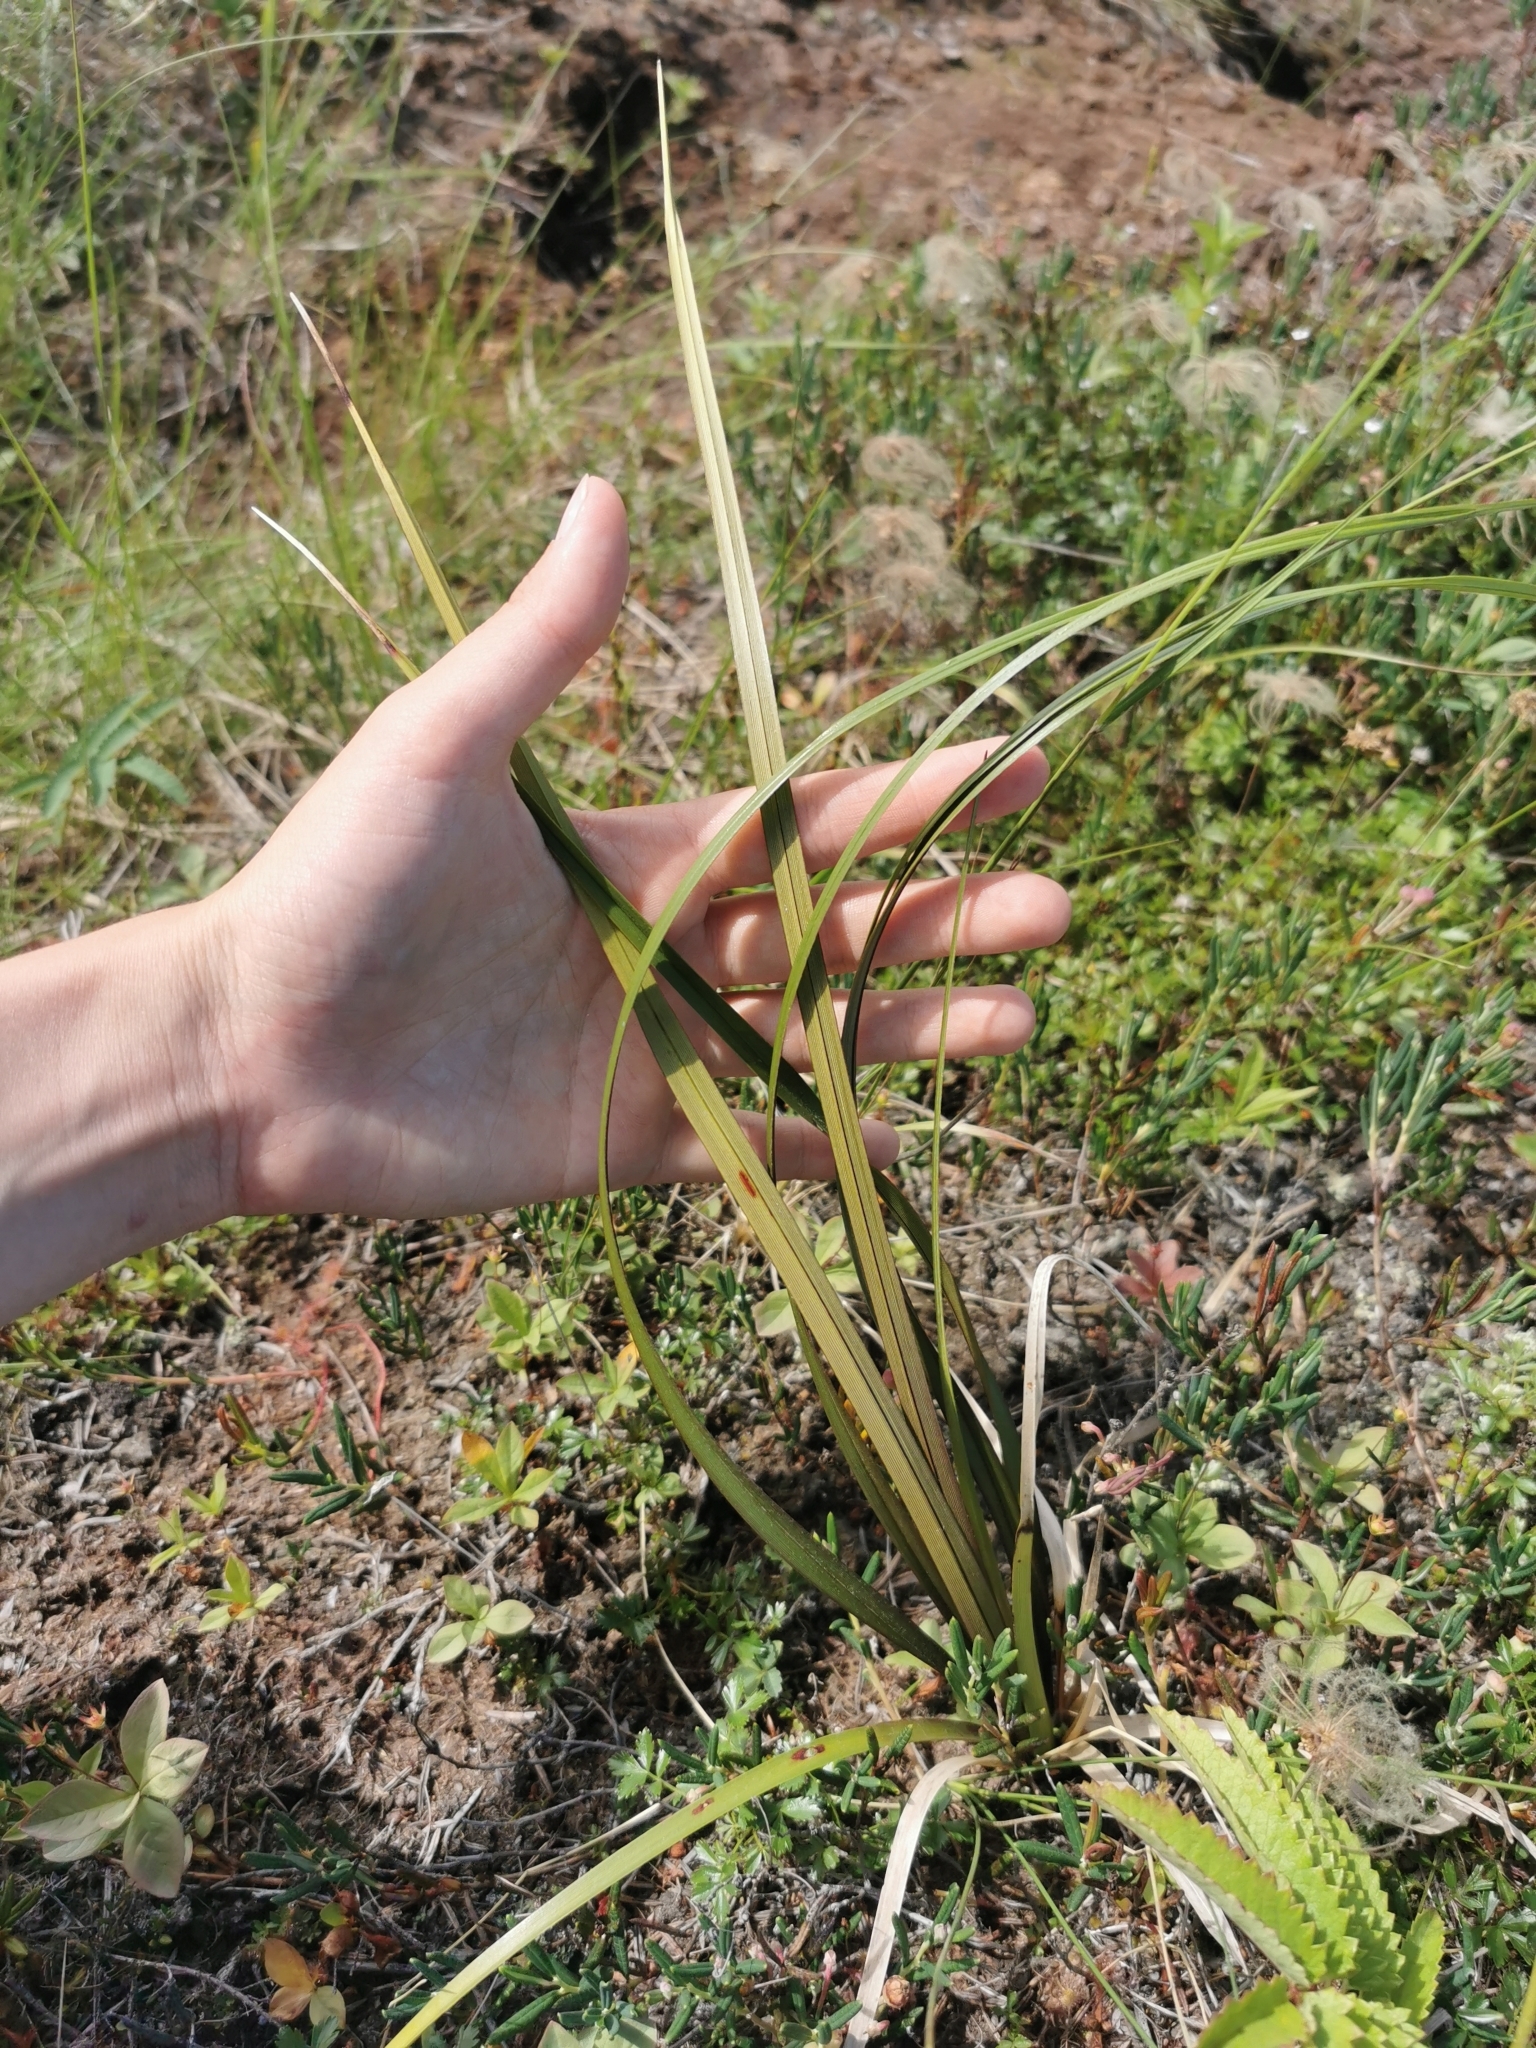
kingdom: Plantae
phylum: Tracheophyta
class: Liliopsida
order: Poales
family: Cyperaceae
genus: Eriophorum
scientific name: Eriophorum angustifolium
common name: Common cottongrass
